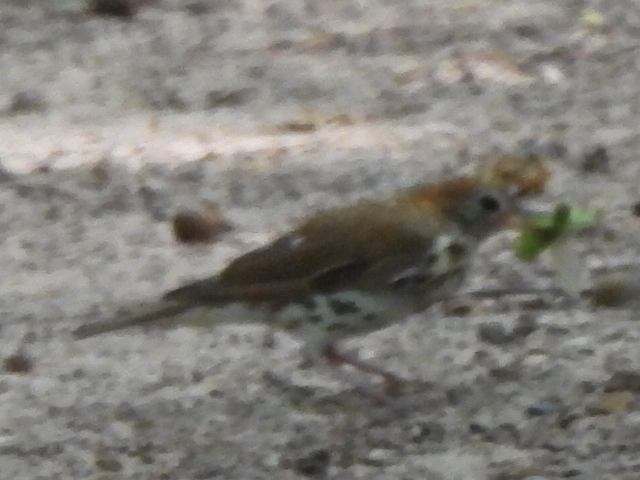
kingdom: Animalia
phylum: Chordata
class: Aves
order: Passeriformes
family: Turdidae
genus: Hylocichla
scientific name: Hylocichla mustelina
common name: Wood thrush
